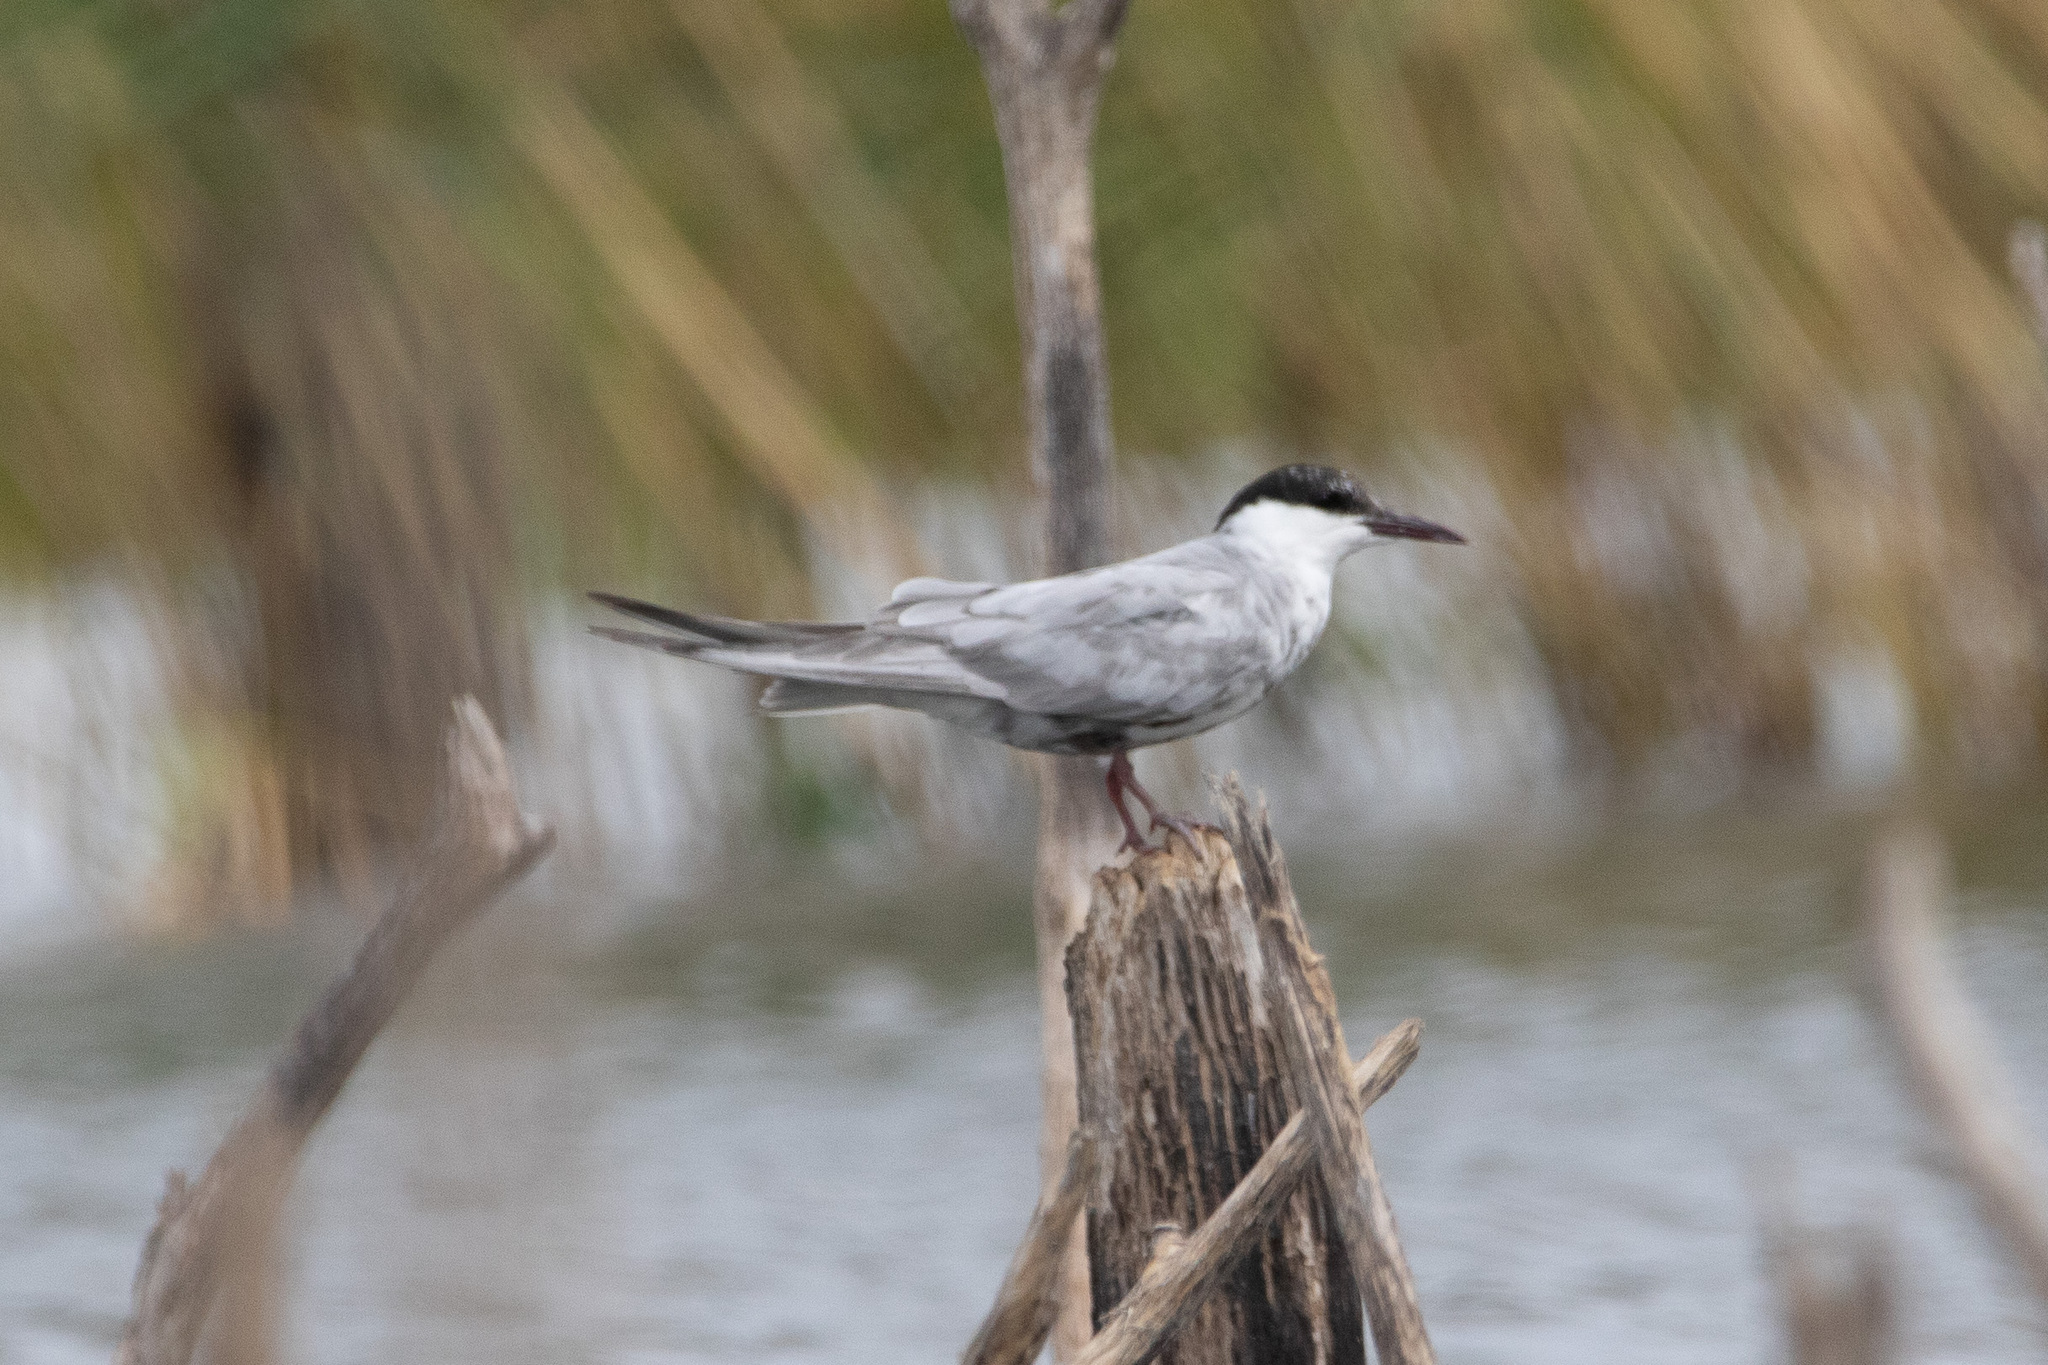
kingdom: Animalia
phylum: Chordata
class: Aves
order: Charadriiformes
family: Laridae
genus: Chlidonias
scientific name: Chlidonias hybrida
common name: Whiskered tern
